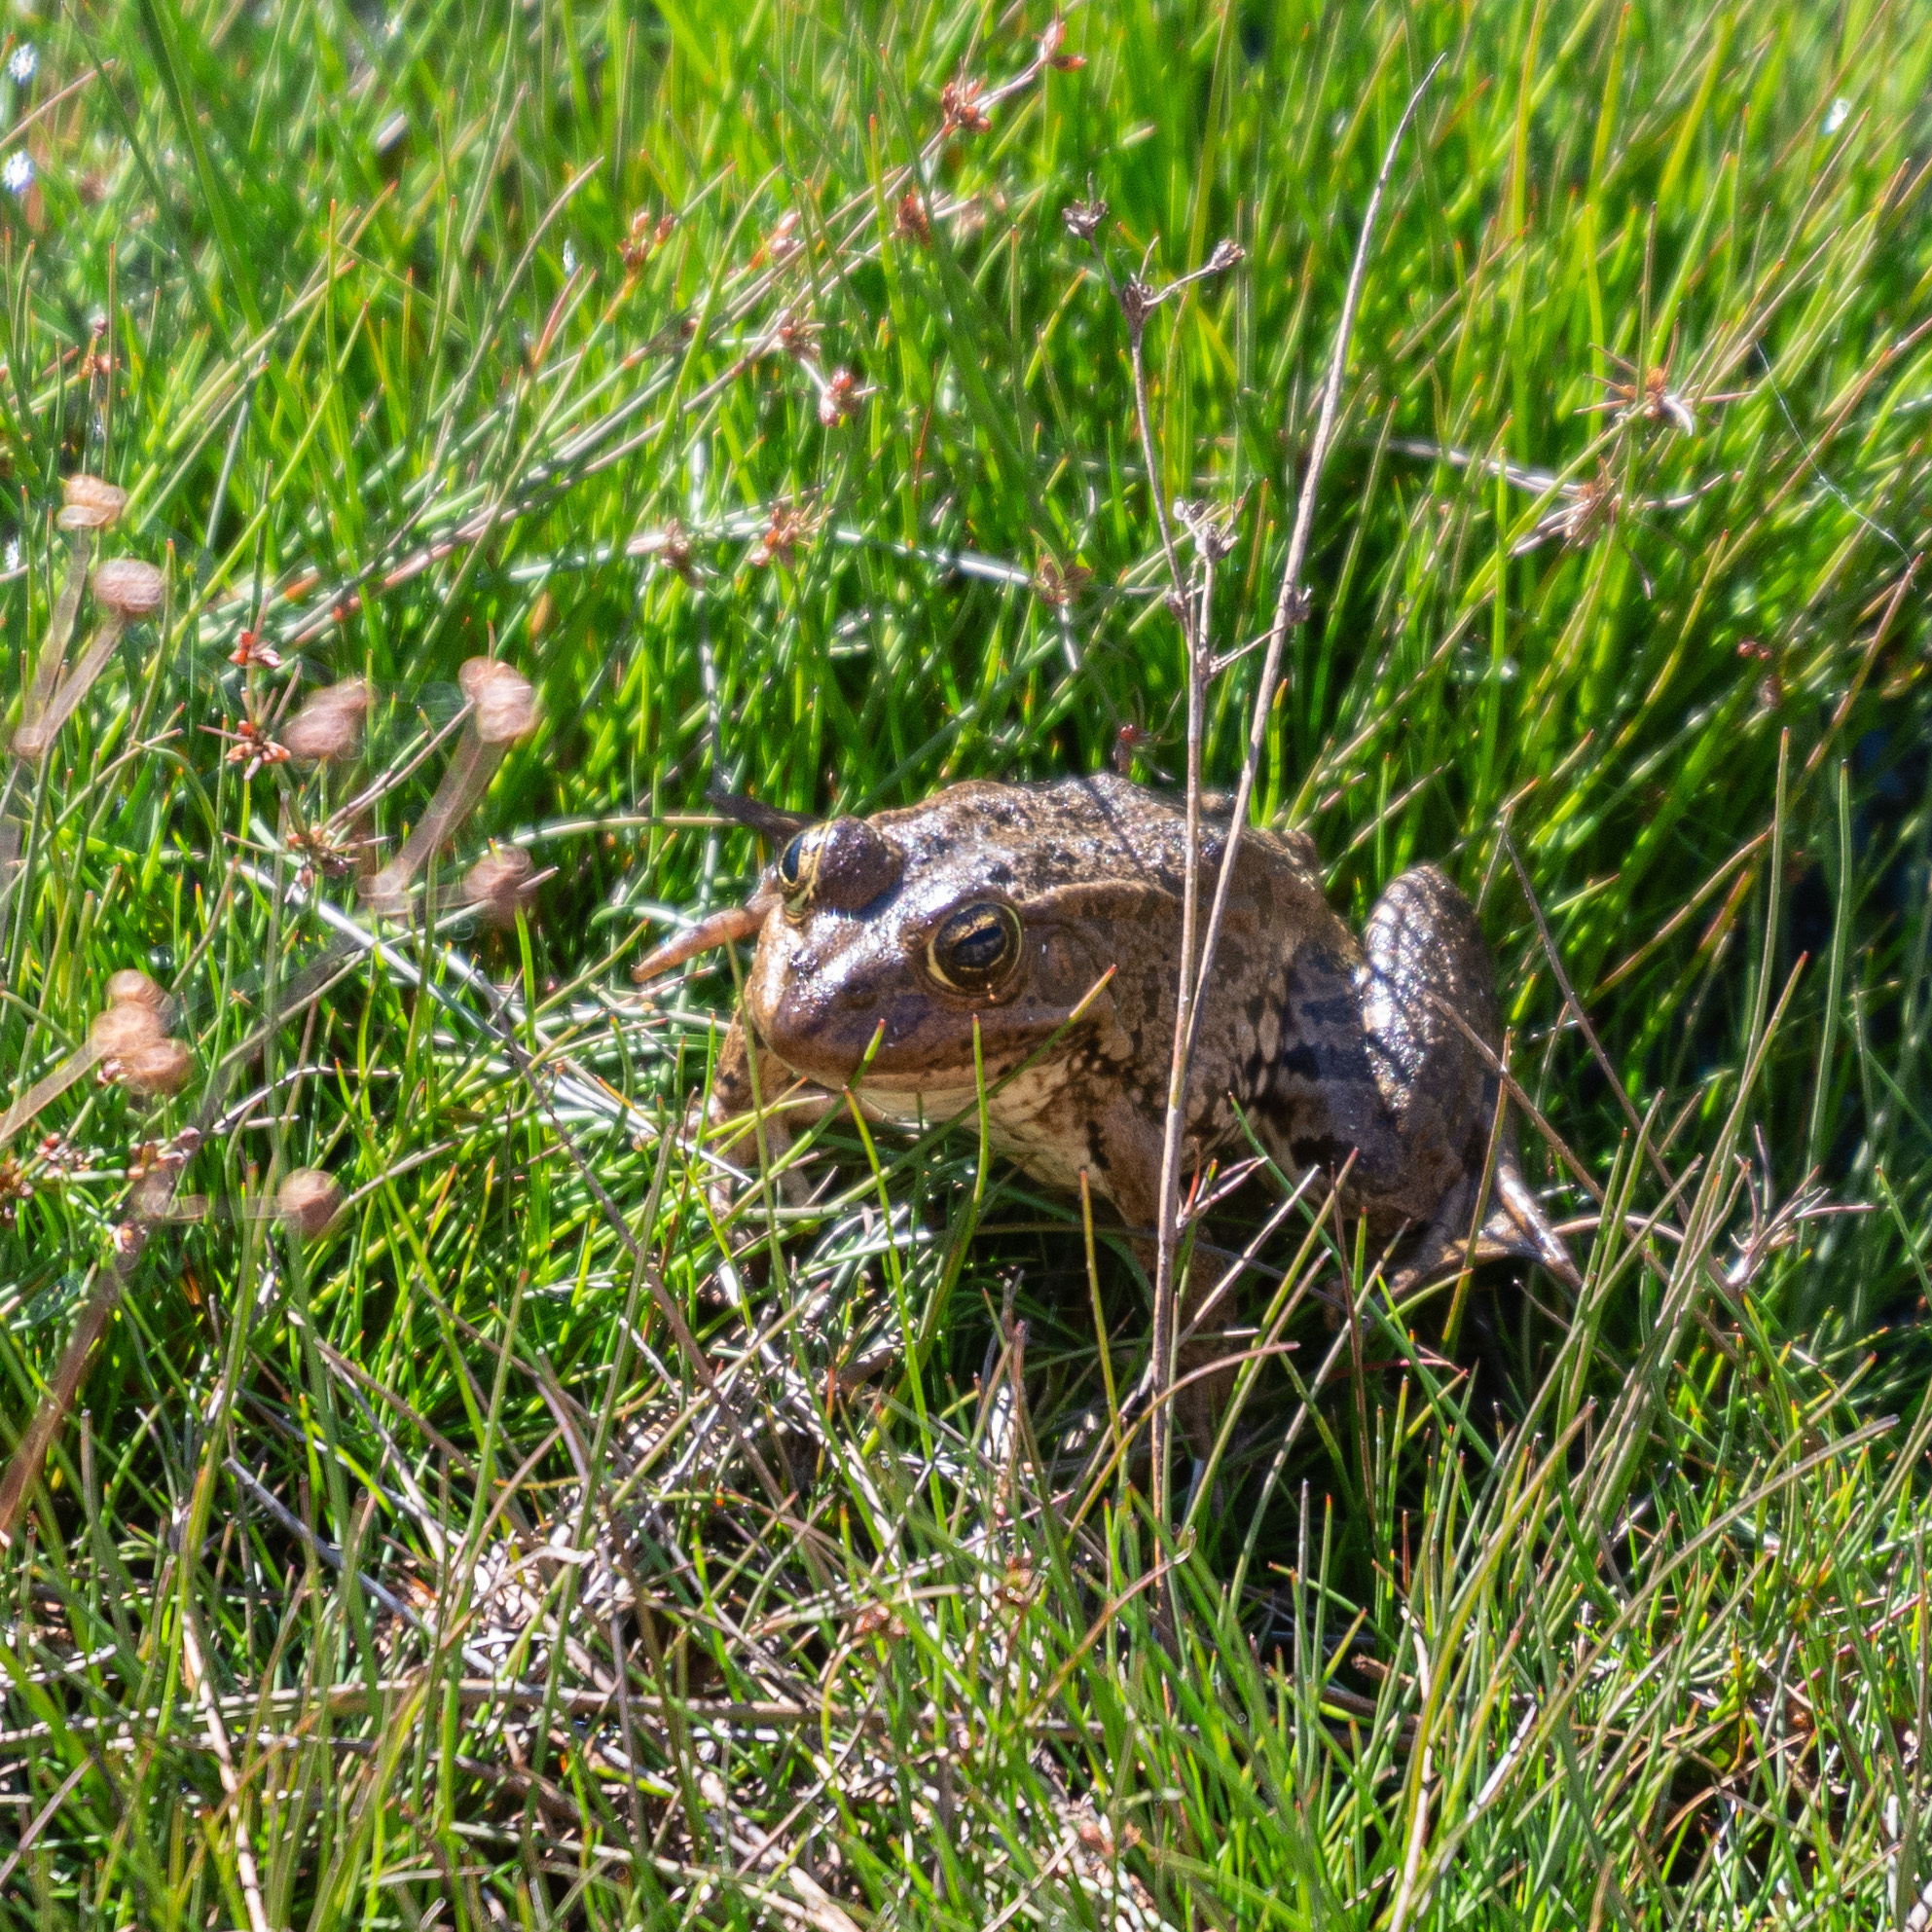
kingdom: Animalia
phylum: Chordata
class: Amphibia
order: Anura
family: Ranidae
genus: Pelophylax
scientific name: Pelophylax perezi
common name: Perez's frog
